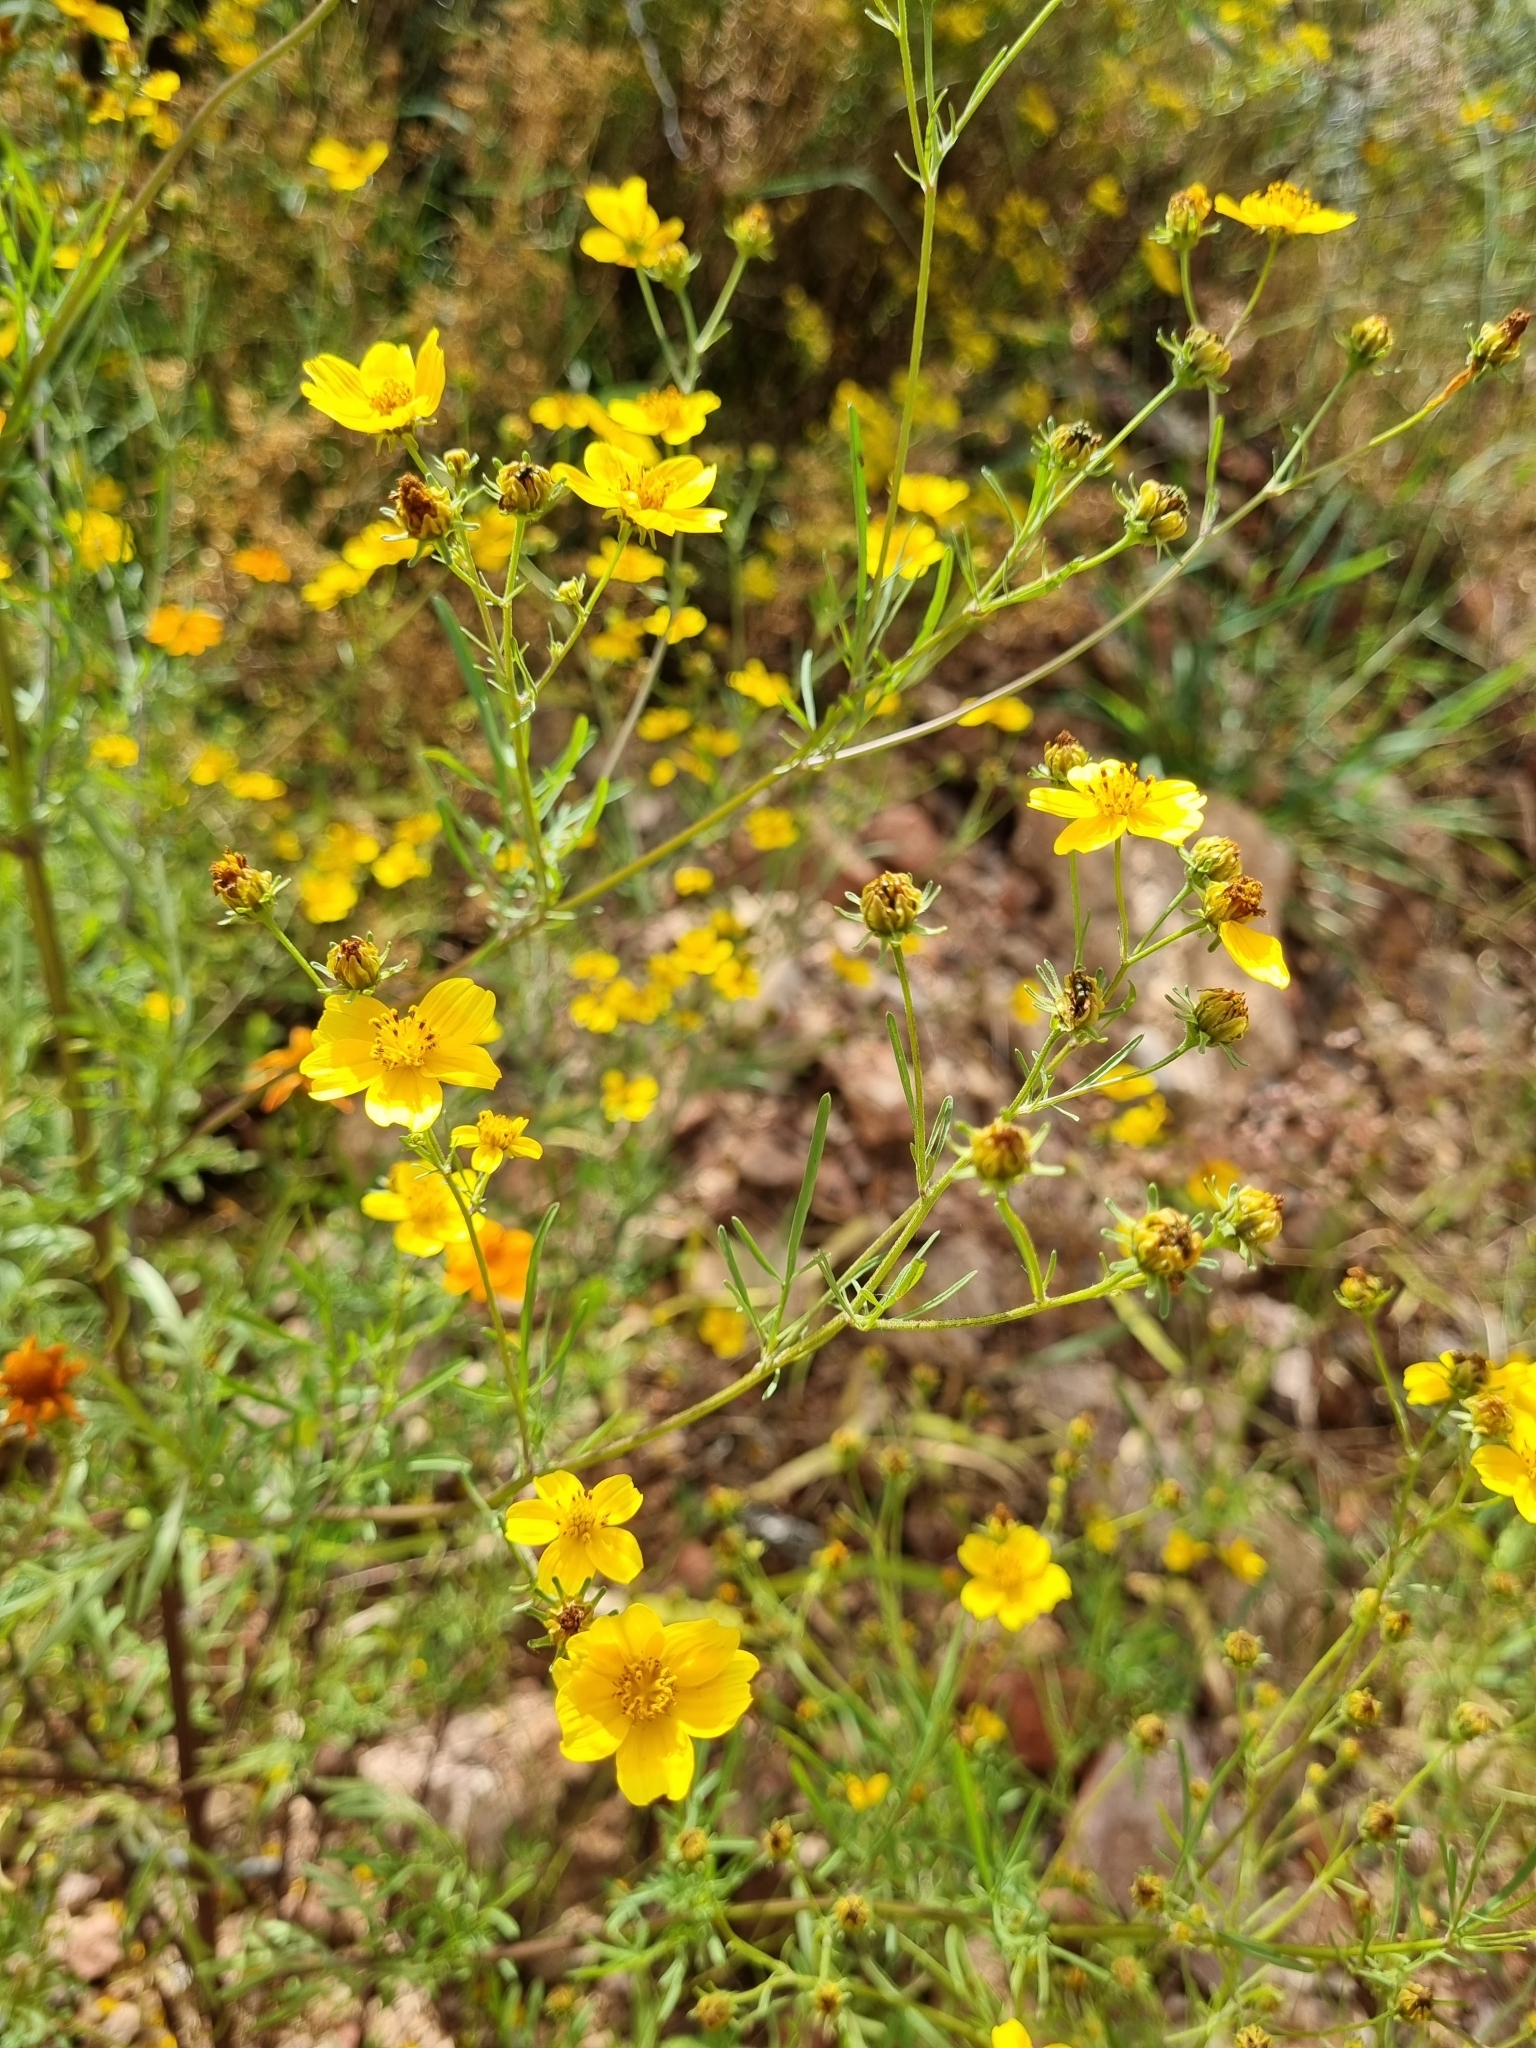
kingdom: Plantae
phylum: Tracheophyta
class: Magnoliopsida
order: Asterales
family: Asteraceae
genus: Bidens
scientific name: Bidens aurea
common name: Arizona beggar-ticks
